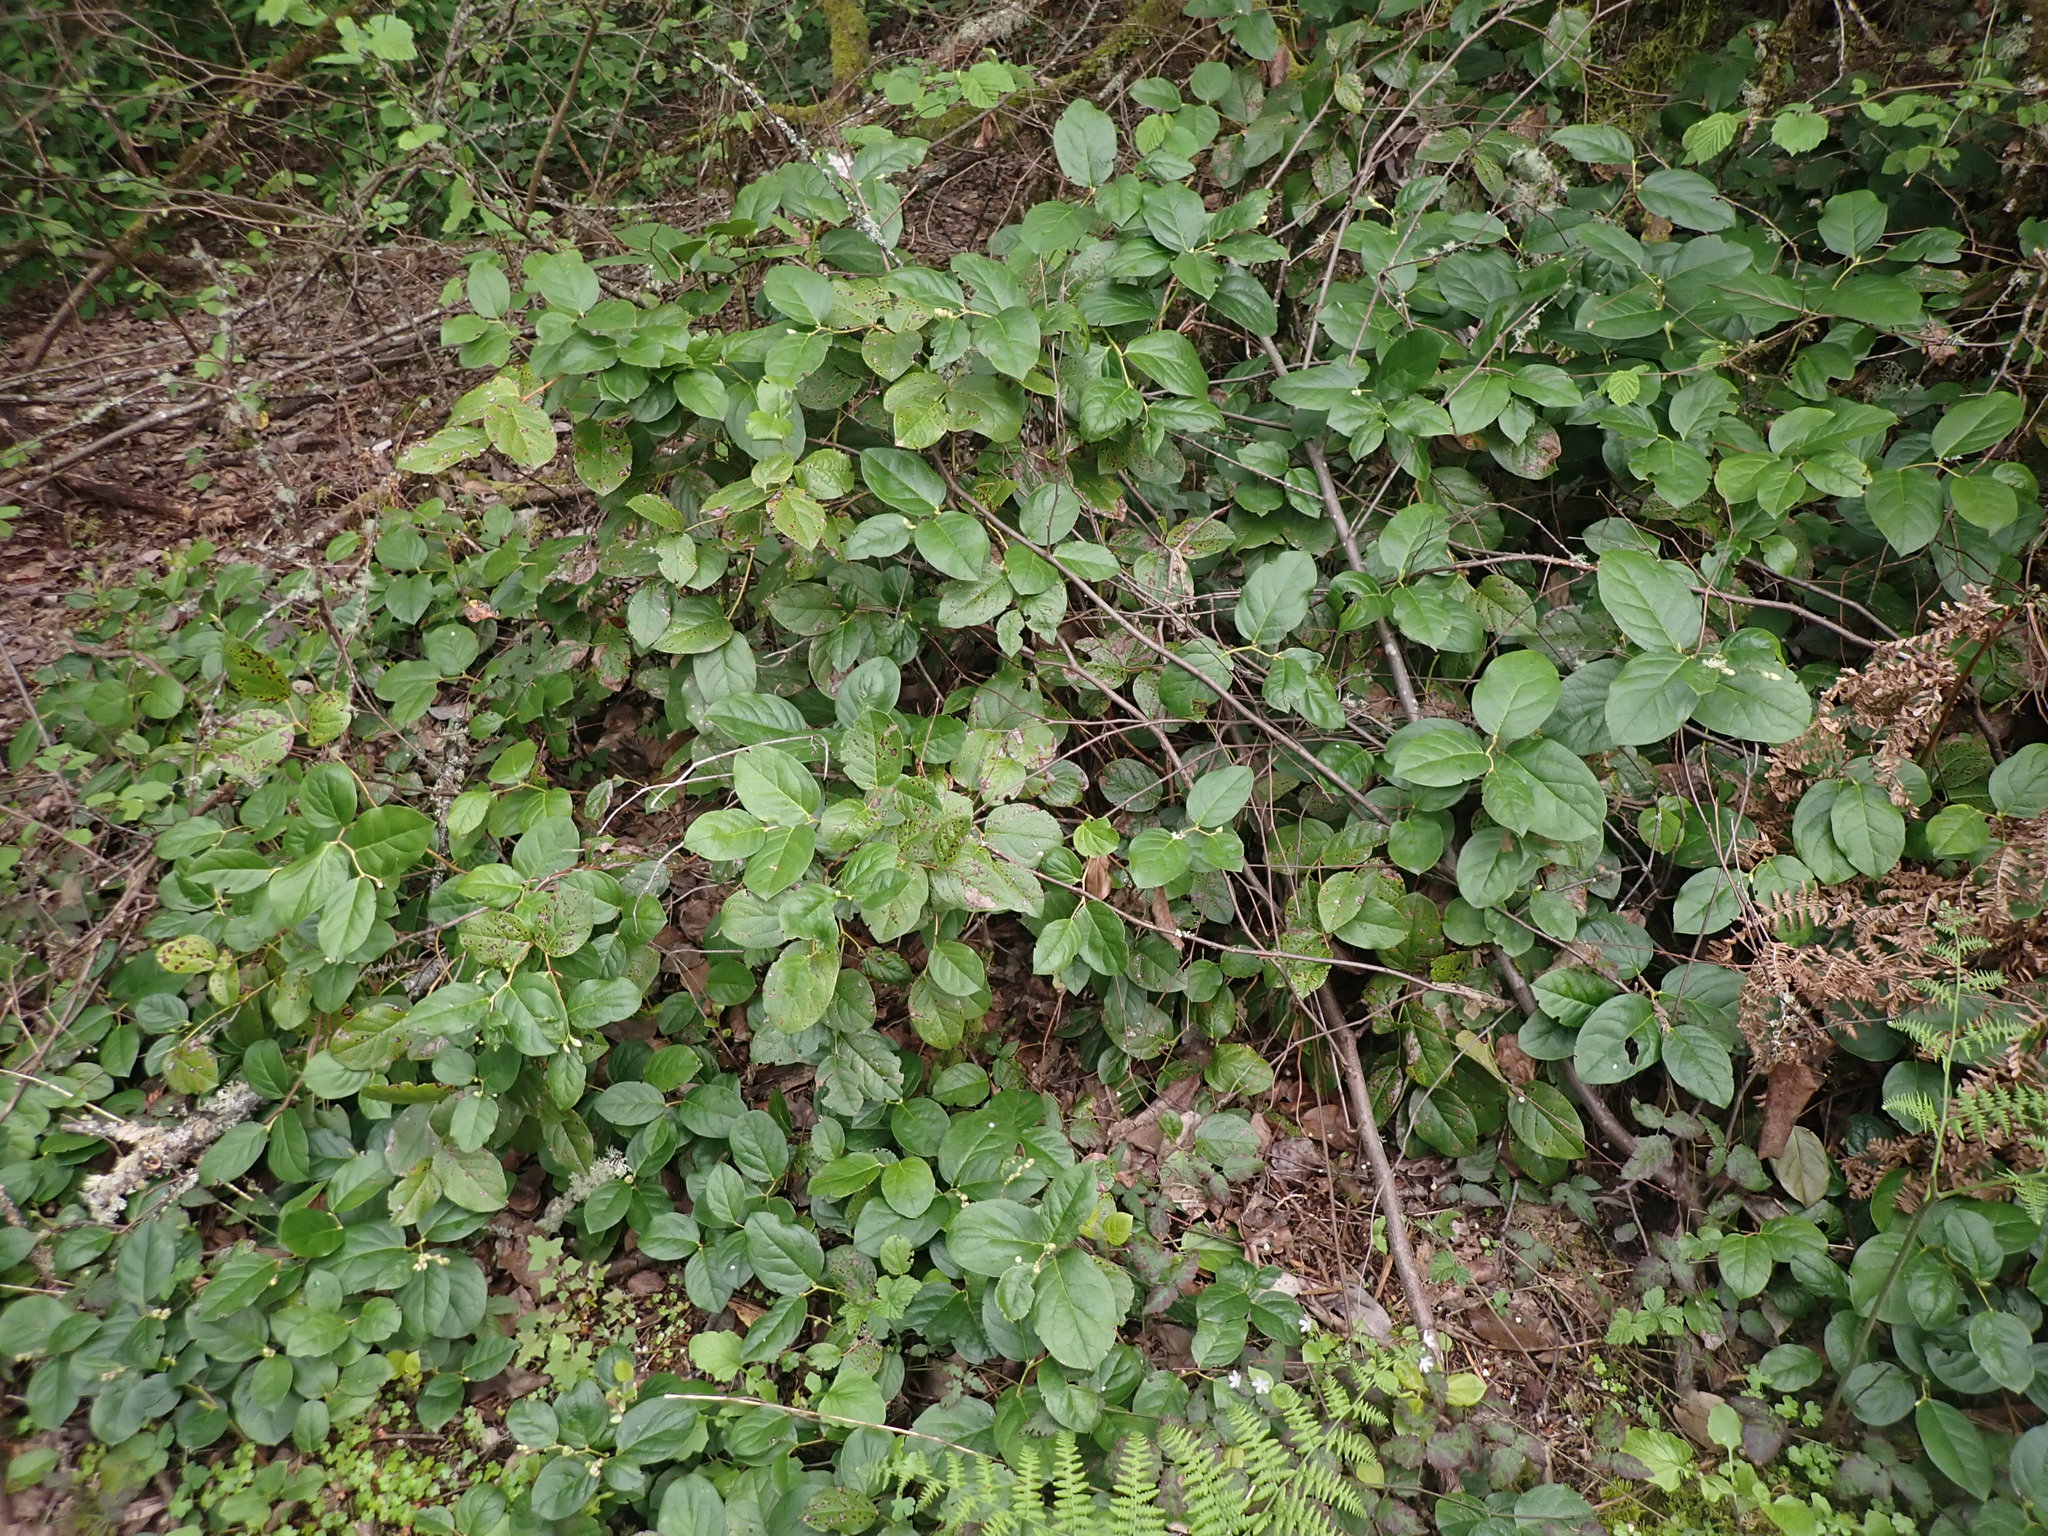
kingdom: Plantae
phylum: Tracheophyta
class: Magnoliopsida
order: Ericales
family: Ericaceae
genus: Gaultheria
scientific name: Gaultheria shallon
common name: Shallon
